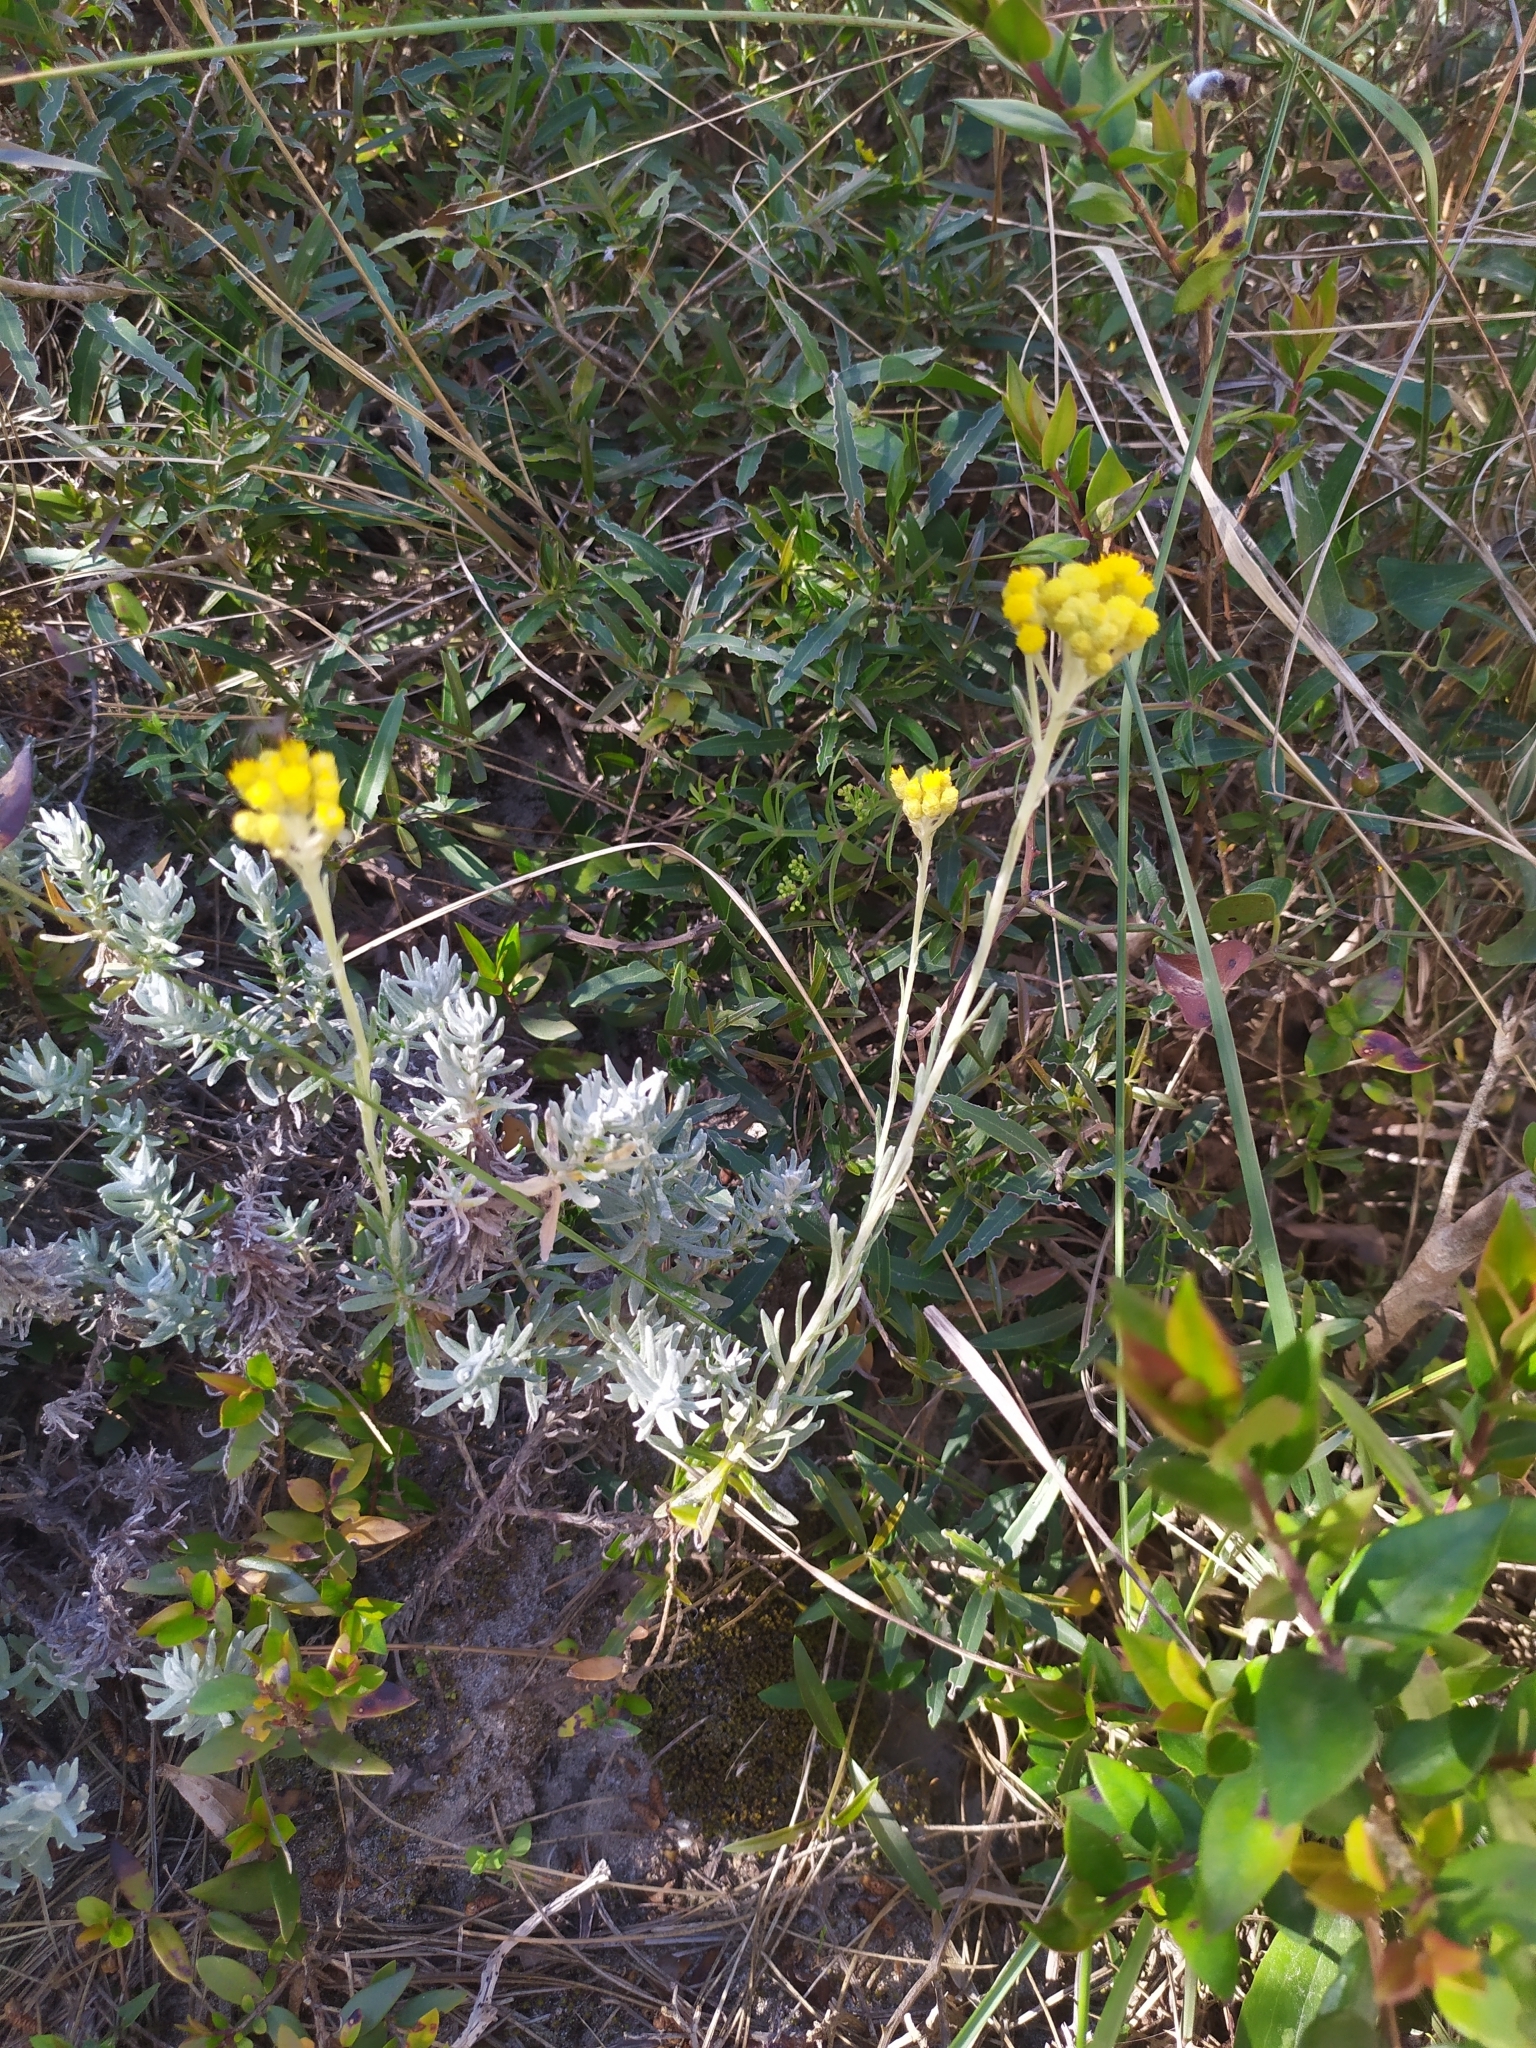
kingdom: Plantae
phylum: Tracheophyta
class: Magnoliopsida
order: Asterales
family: Asteraceae
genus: Helichrysum
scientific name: Helichrysum stoechas
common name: Goldilocks
